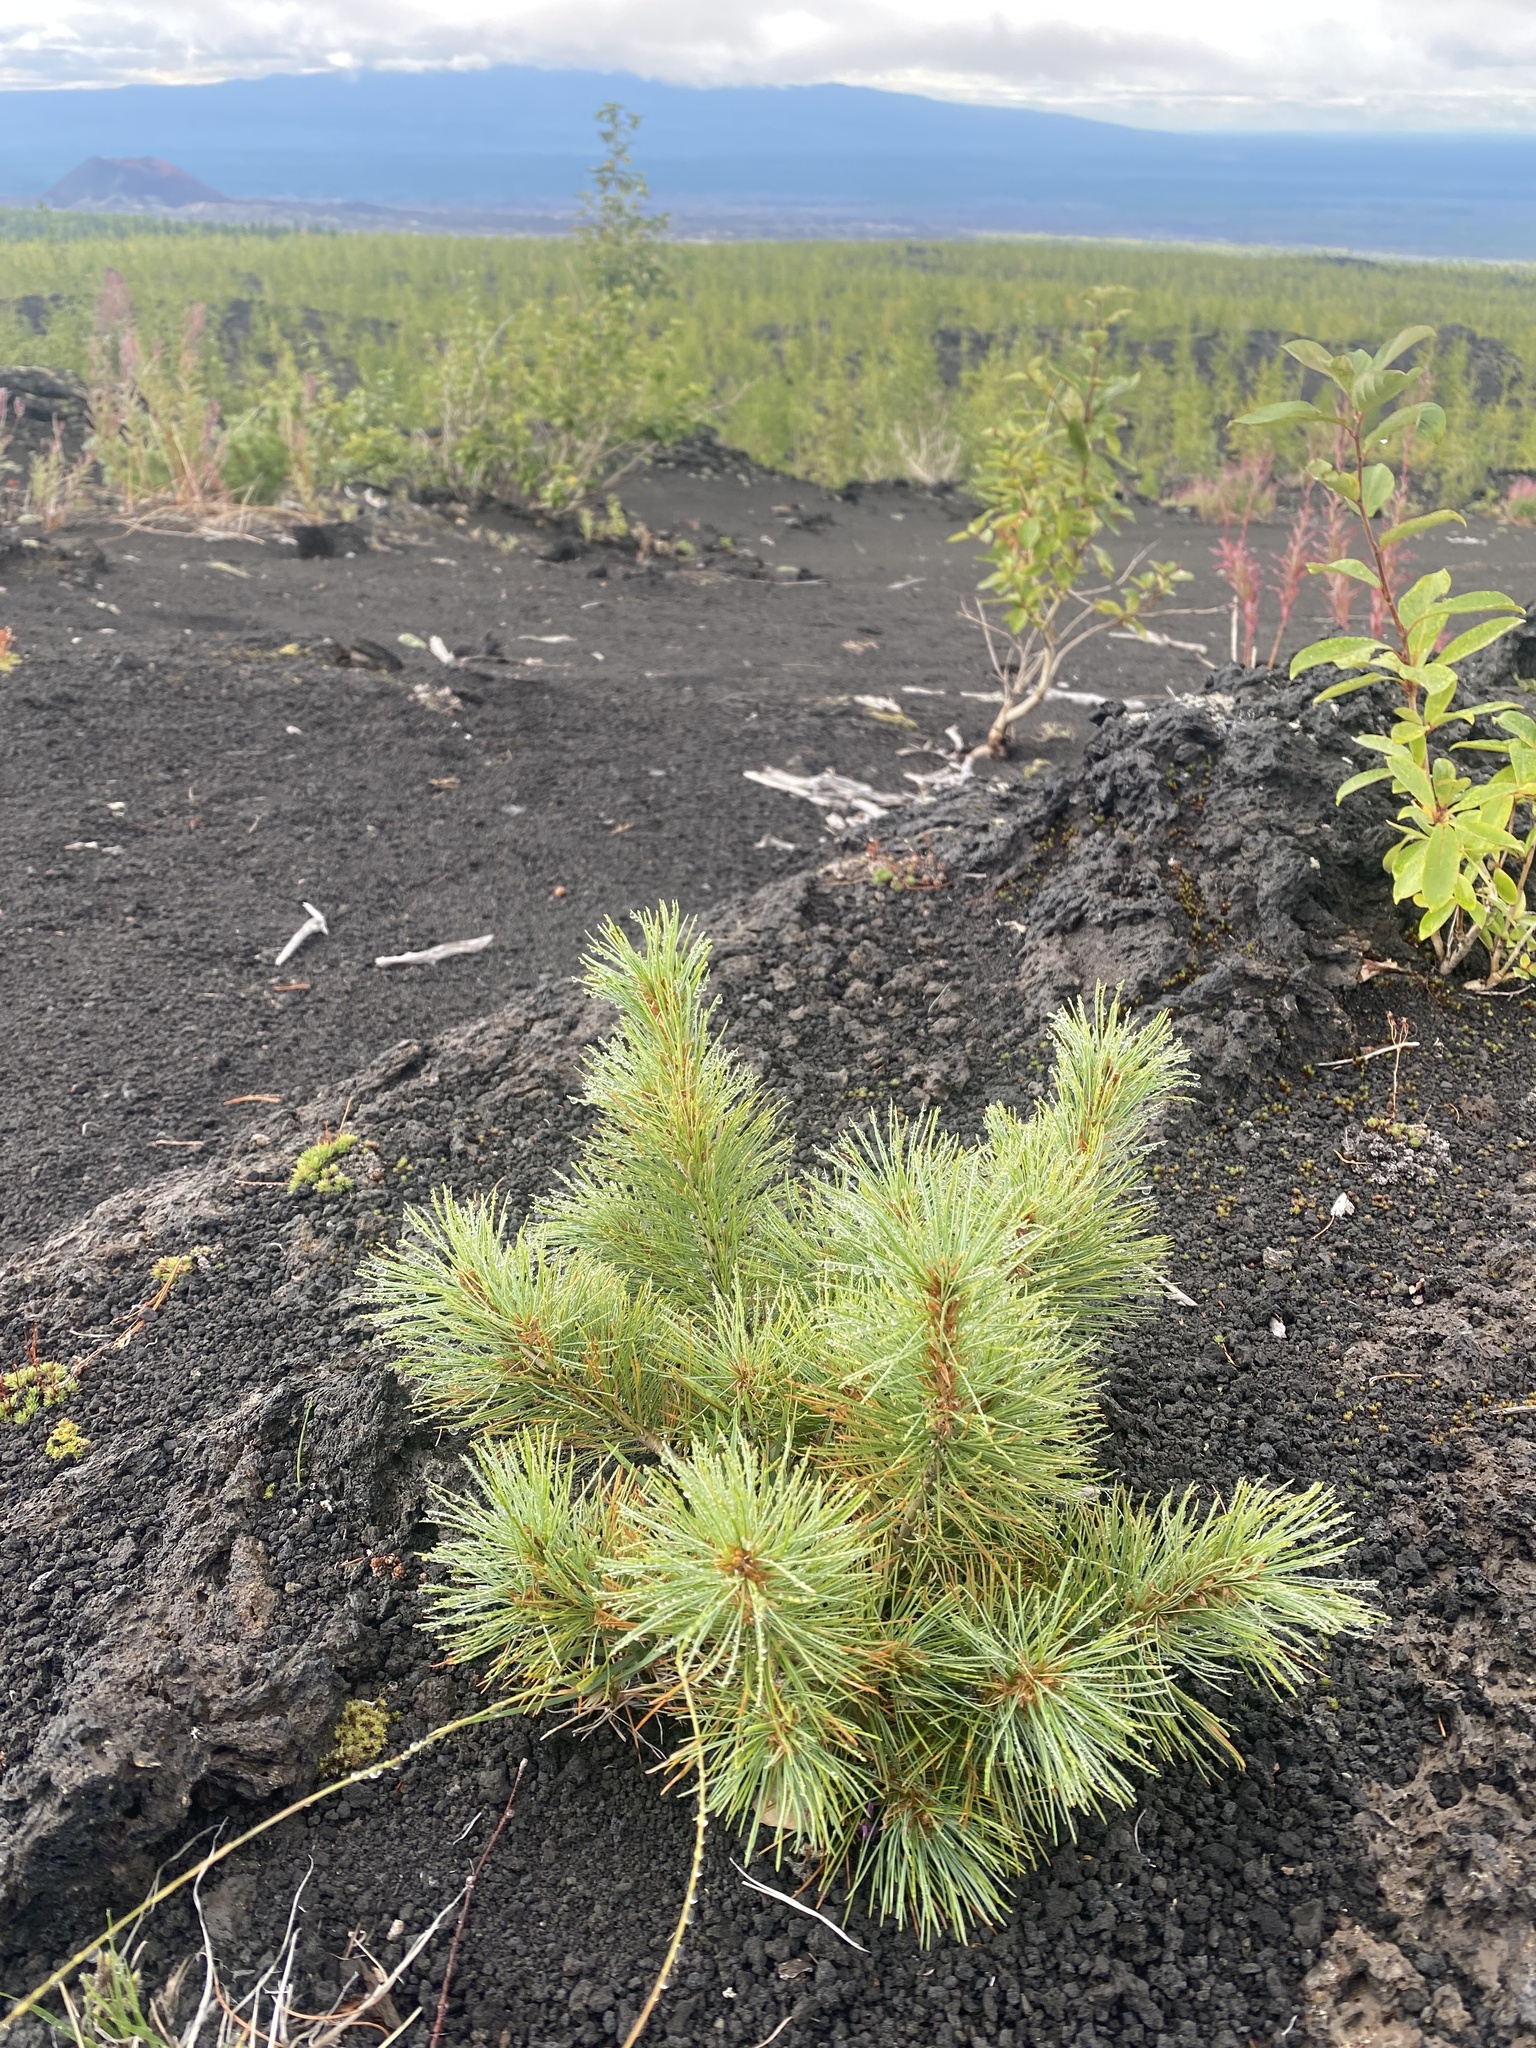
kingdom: Plantae
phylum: Tracheophyta
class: Pinopsida
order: Pinales
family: Pinaceae
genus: Pinus
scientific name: Pinus pumila
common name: Dwarf siberian pine
